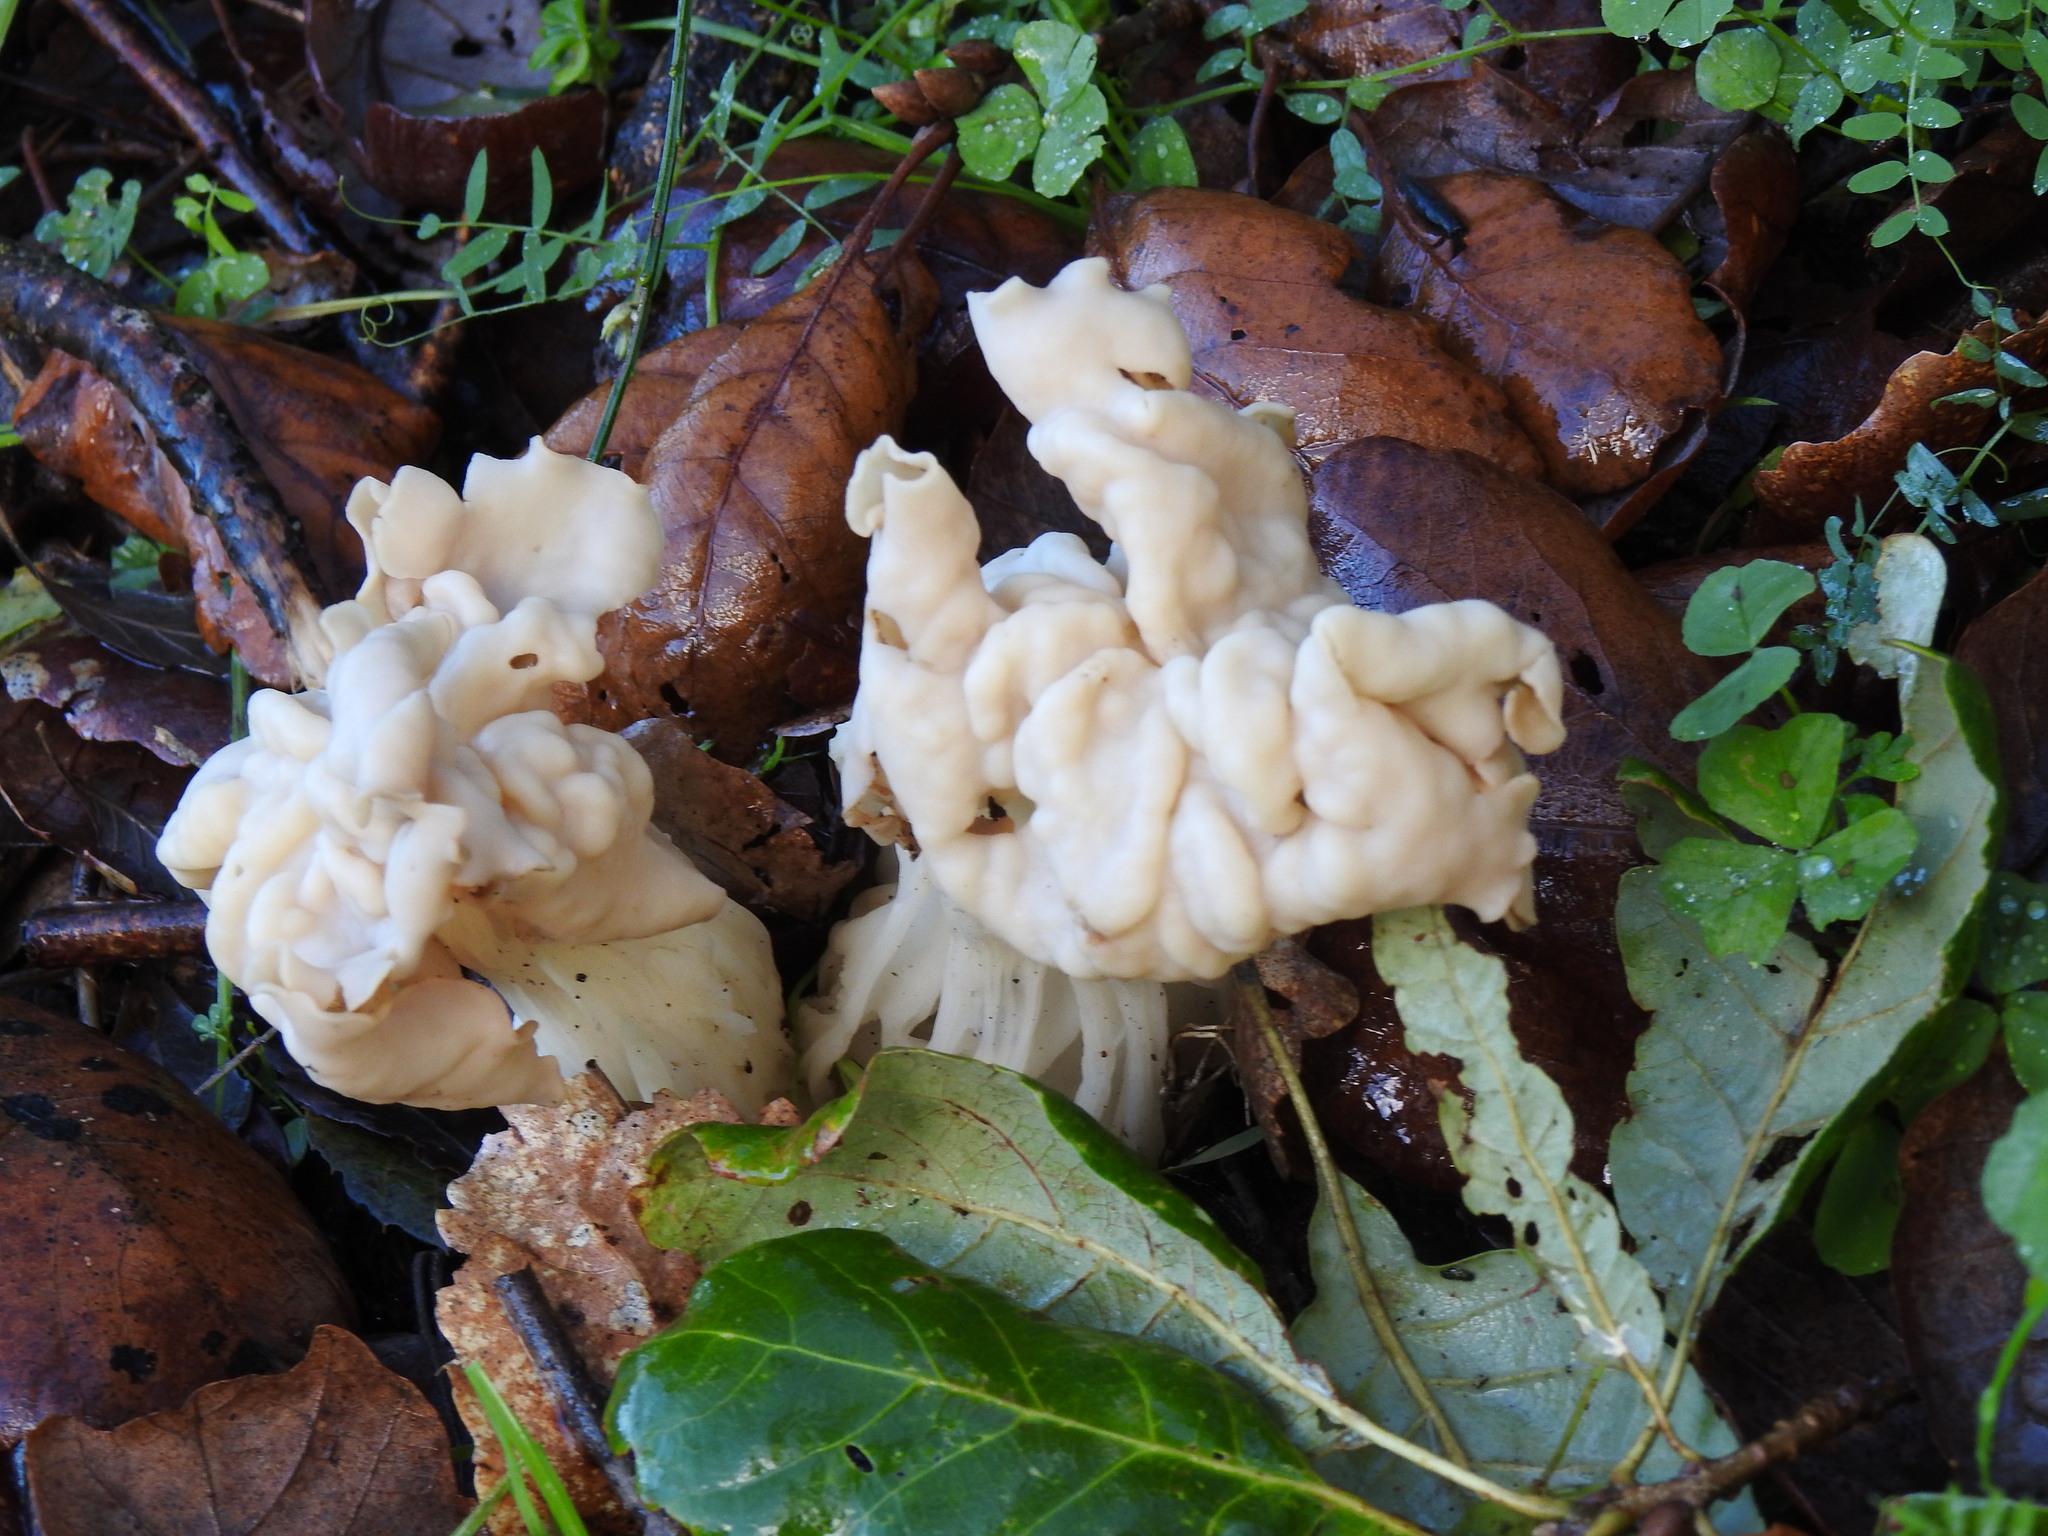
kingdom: Fungi
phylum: Ascomycota
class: Pezizomycetes
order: Pezizales
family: Helvellaceae
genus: Helvella
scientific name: Helvella crispa
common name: White saddle
